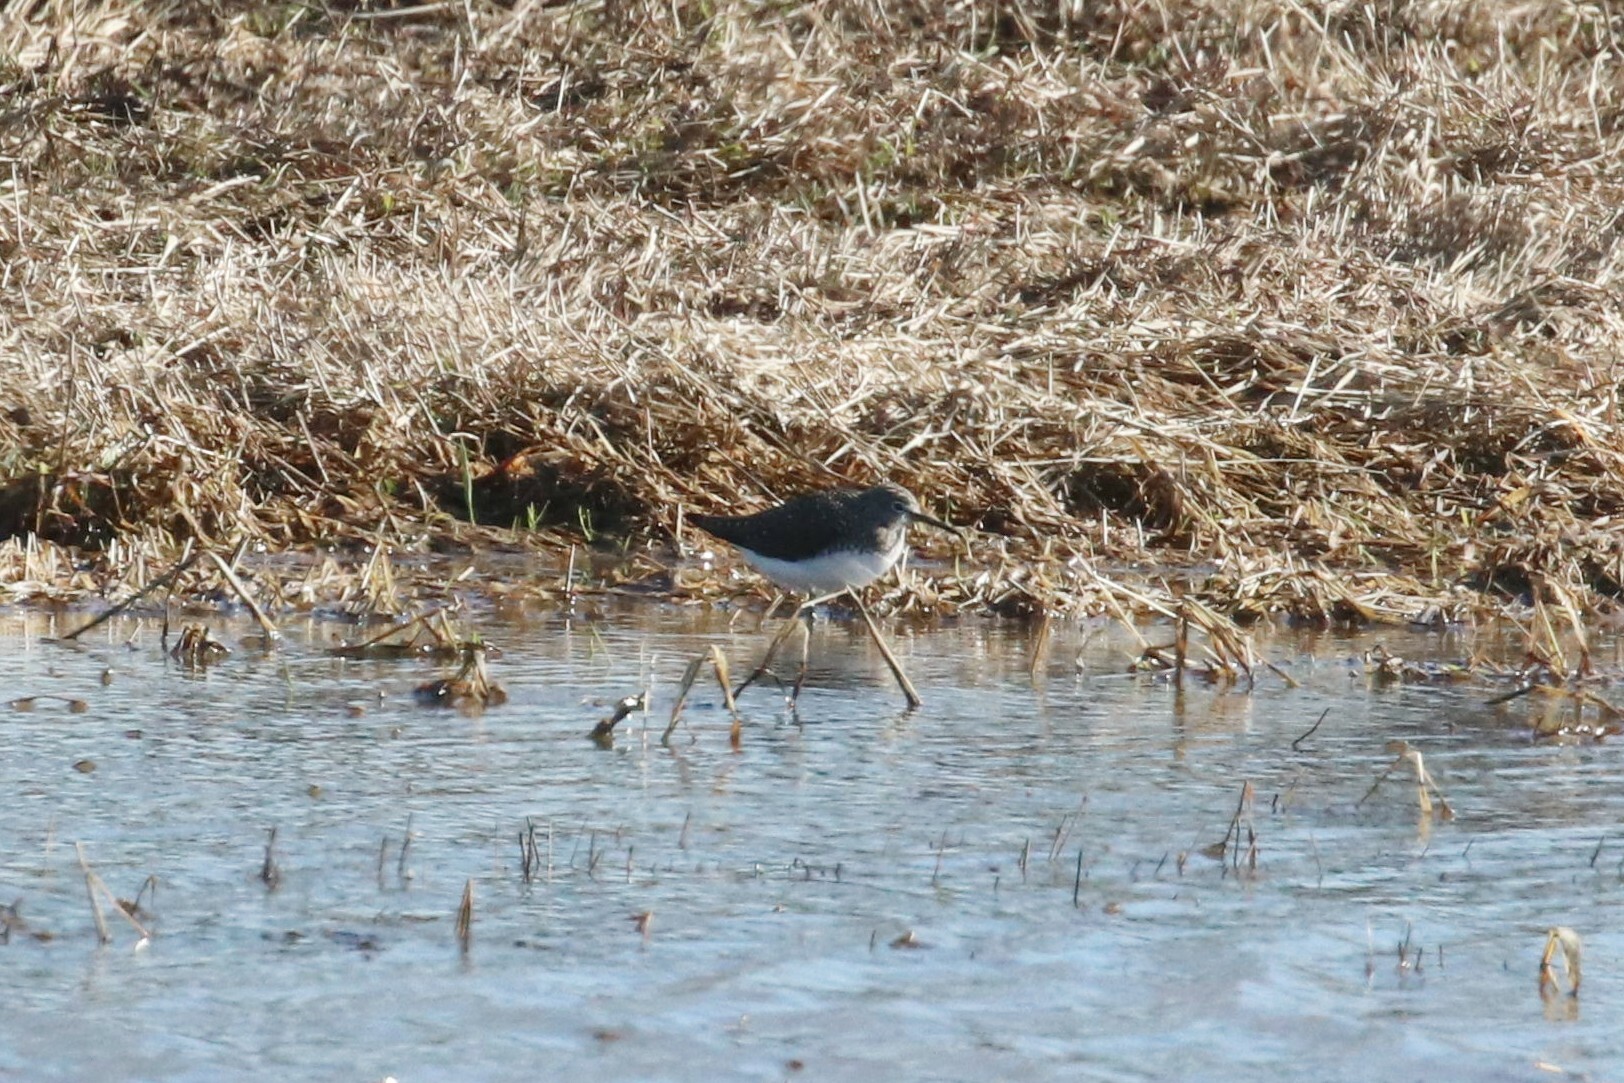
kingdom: Animalia
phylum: Chordata
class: Aves
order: Charadriiformes
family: Scolopacidae
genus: Tringa
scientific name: Tringa ochropus
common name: Green sandpiper
